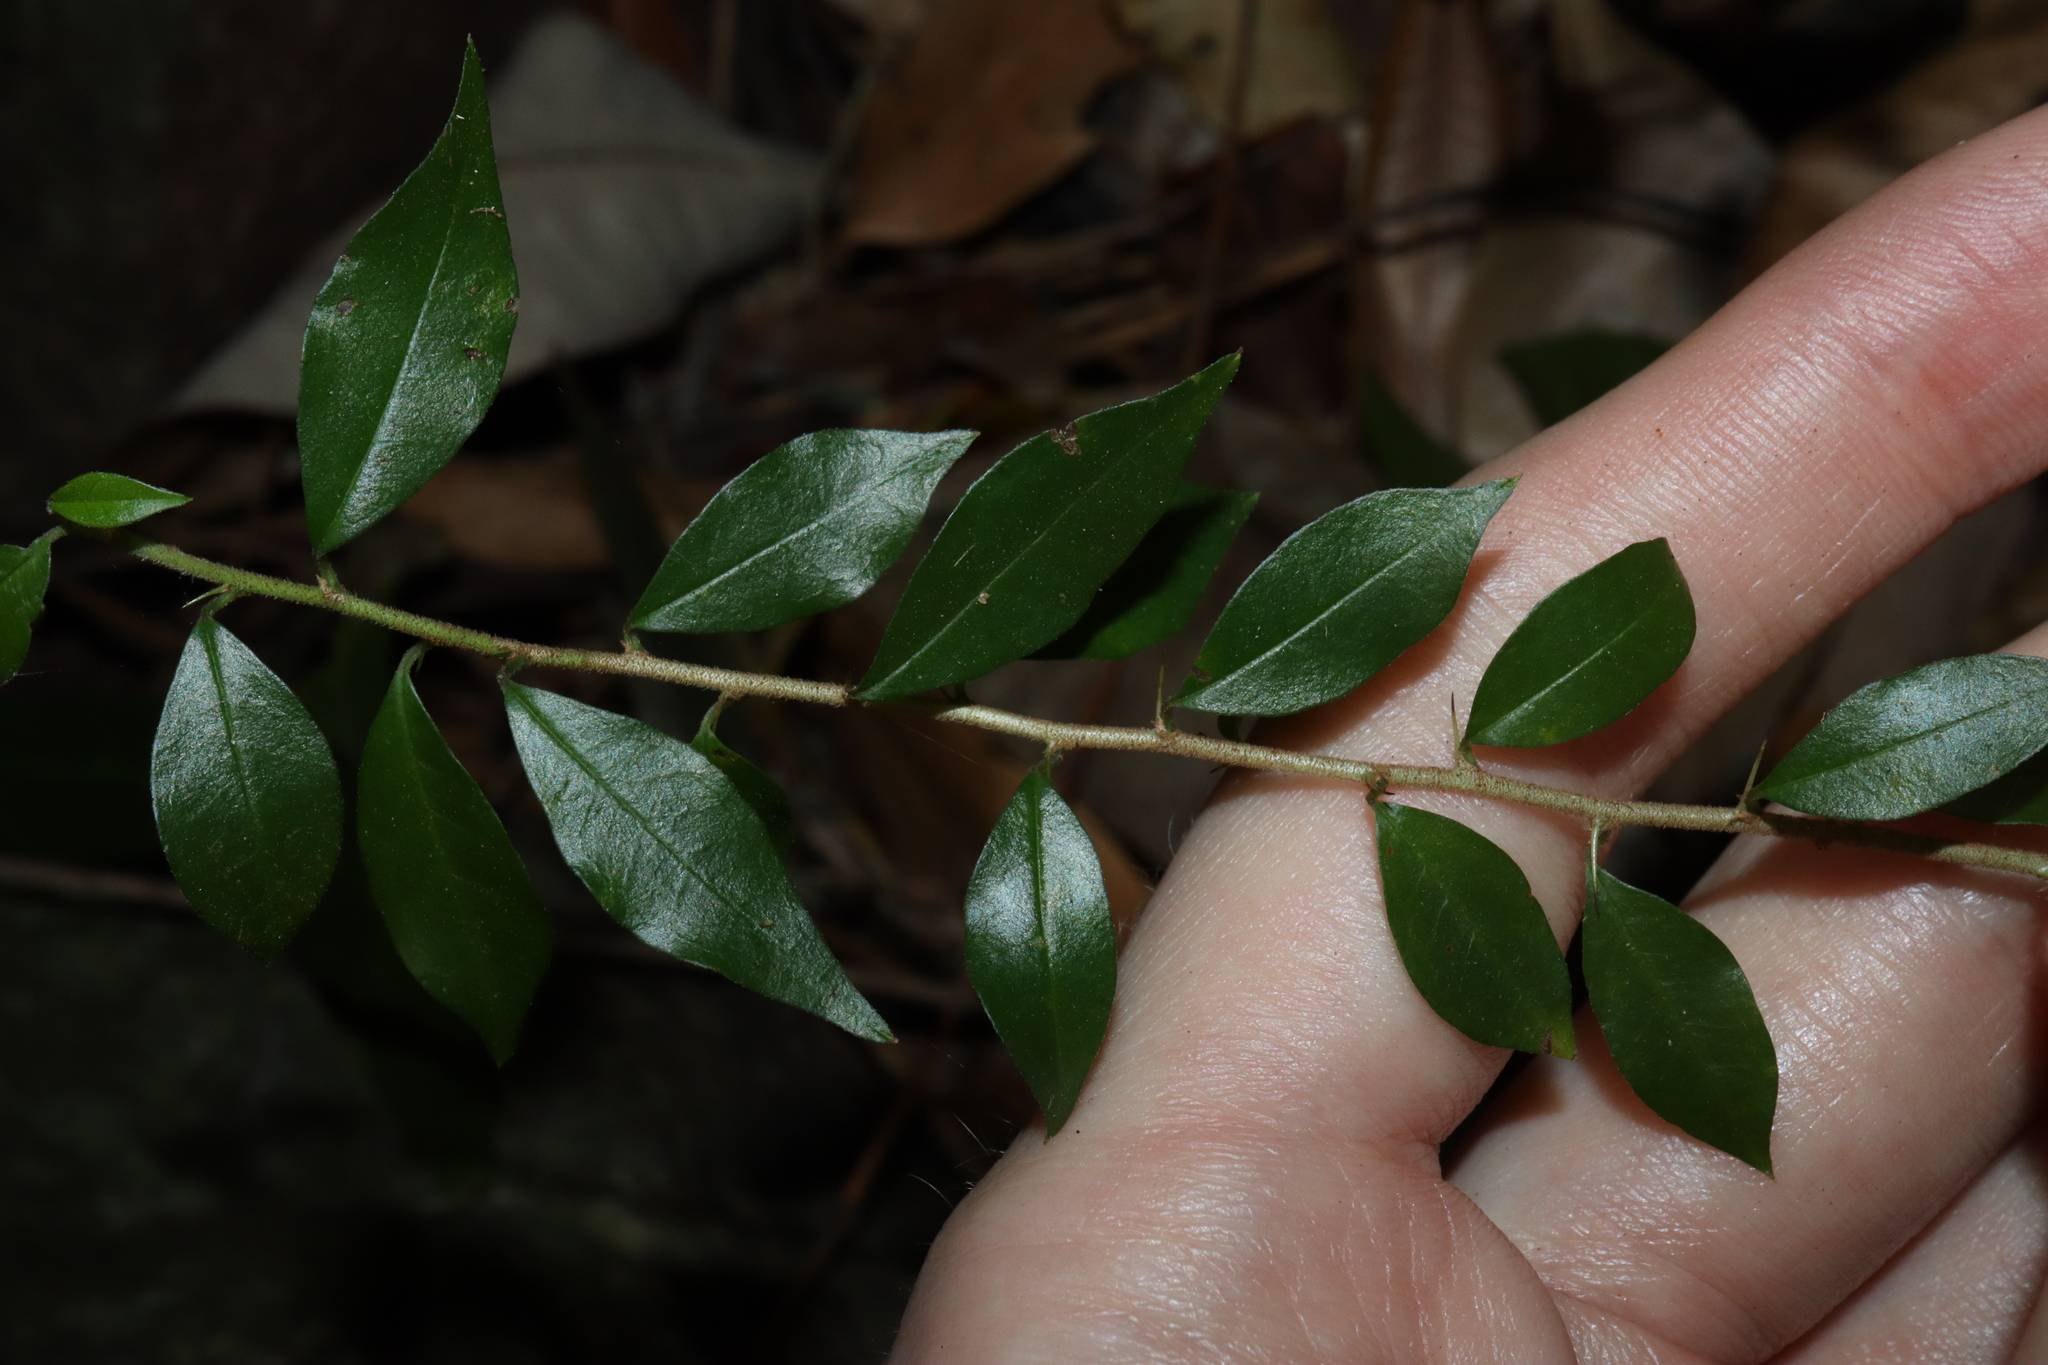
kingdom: Plantae
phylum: Tracheophyta
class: Magnoliopsida
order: Rosales
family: Moraceae
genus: Maclura
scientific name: Maclura cochinchinensis
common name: Cockspurthorn
